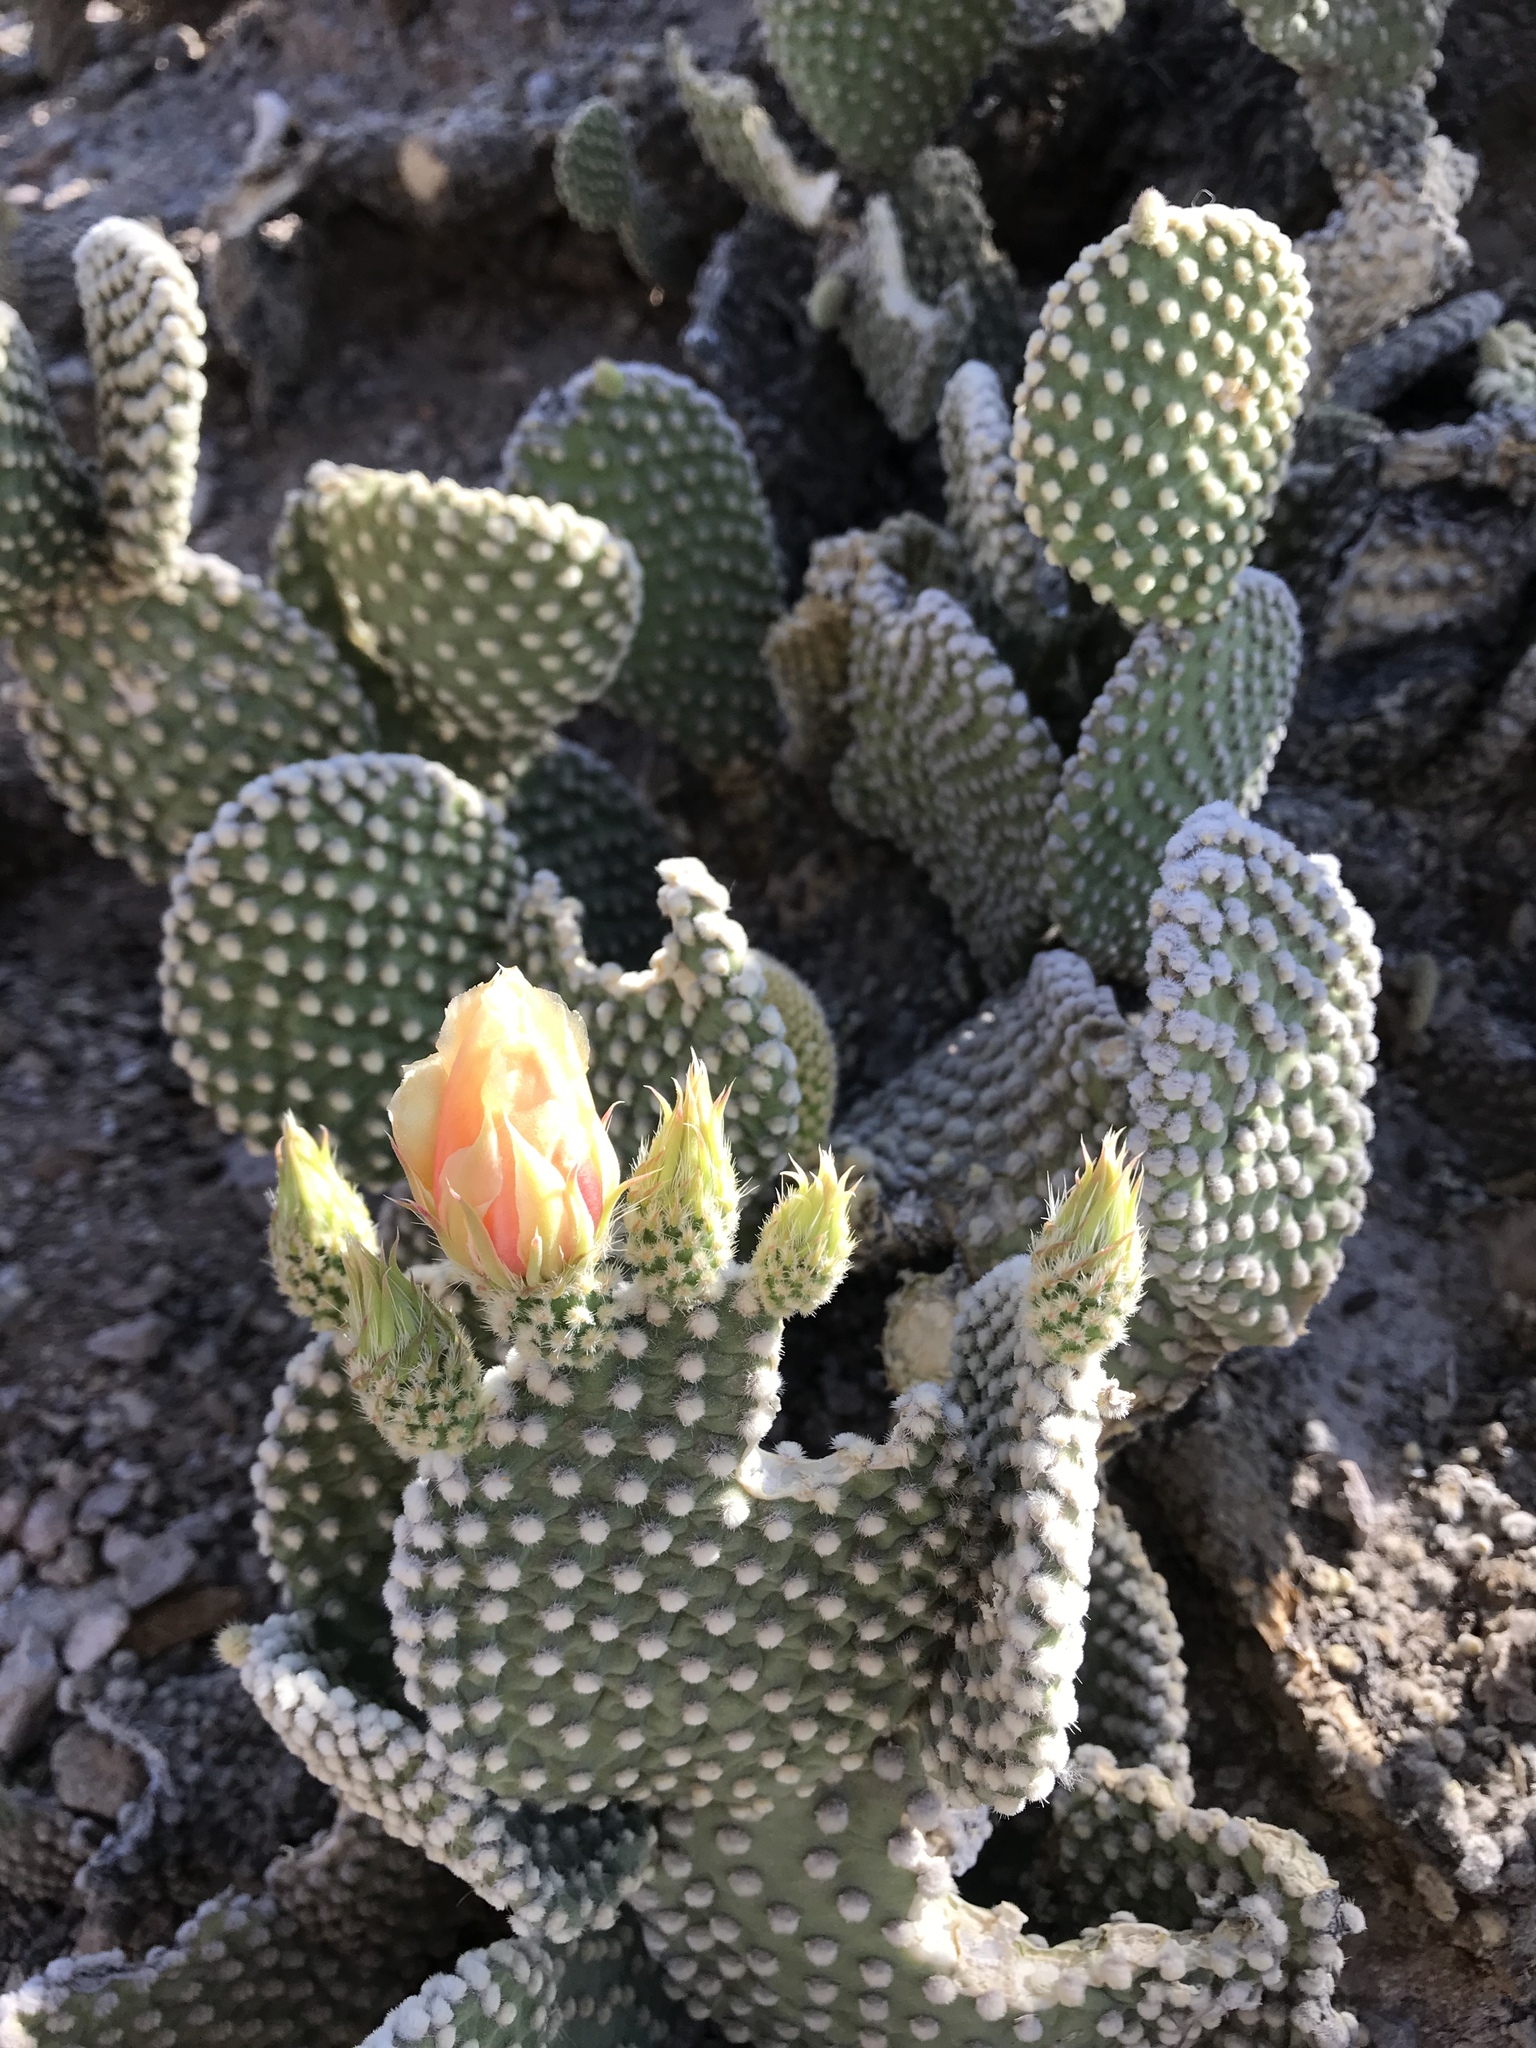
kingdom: Plantae
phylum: Tracheophyta
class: Magnoliopsida
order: Caryophyllales
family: Cactaceae
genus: Opuntia
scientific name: Opuntia microdasys
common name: Angel's-wings
